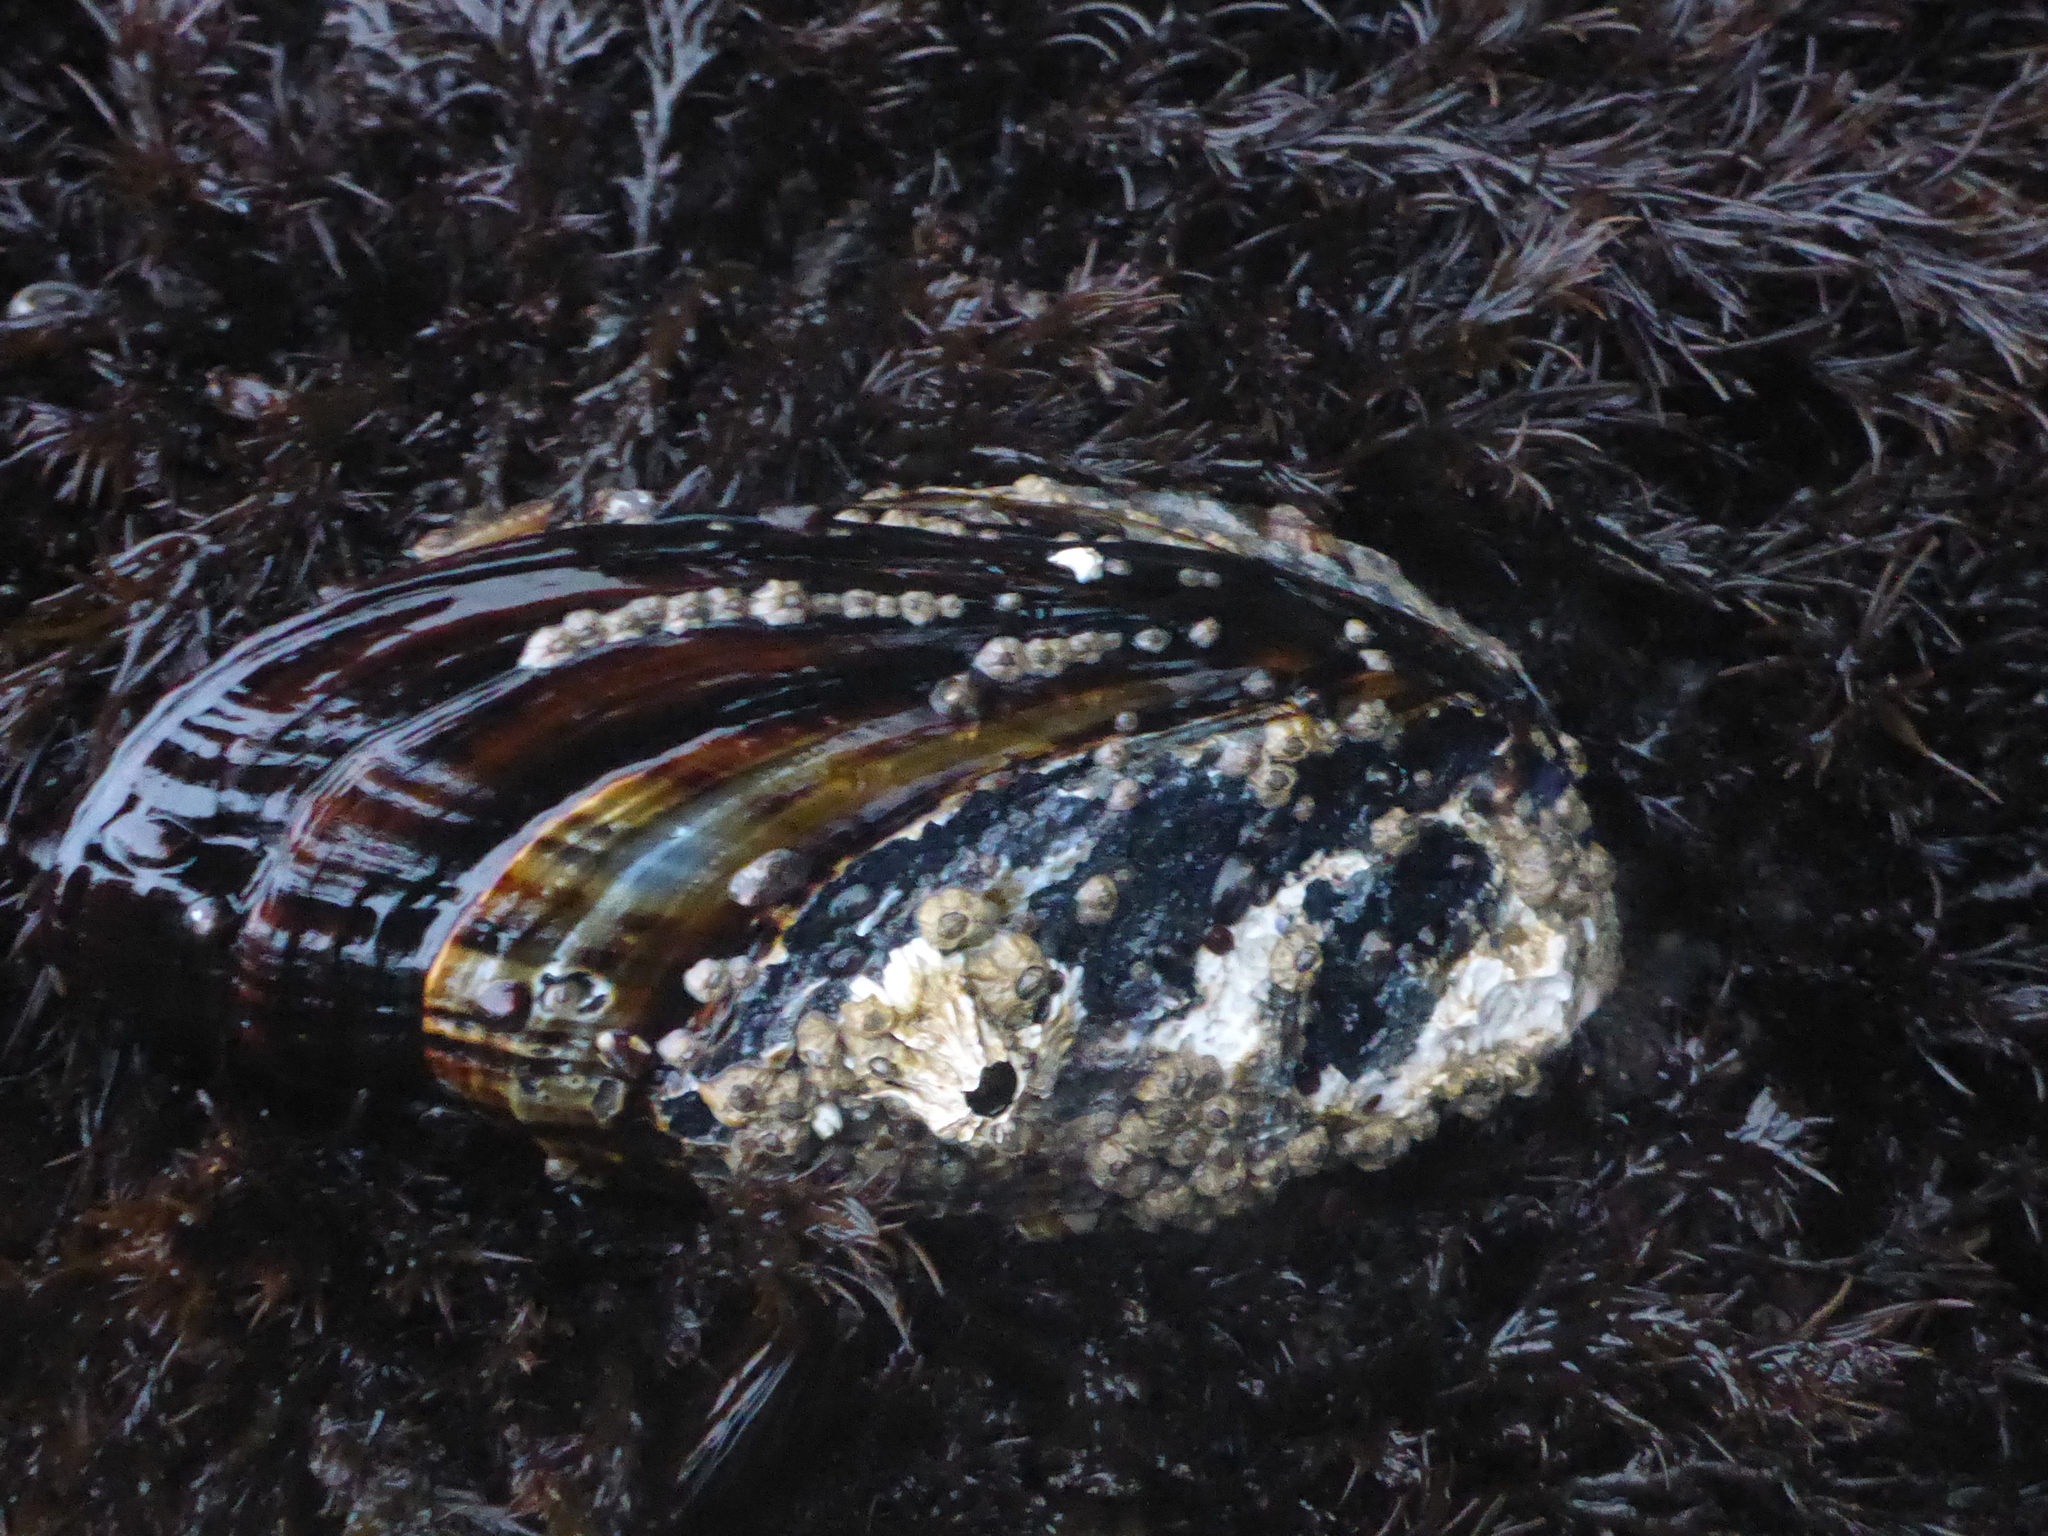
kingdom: Animalia
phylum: Mollusca
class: Bivalvia
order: Mytilida
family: Mytilidae
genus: Mytilus
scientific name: Mytilus californianus
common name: California mussel
